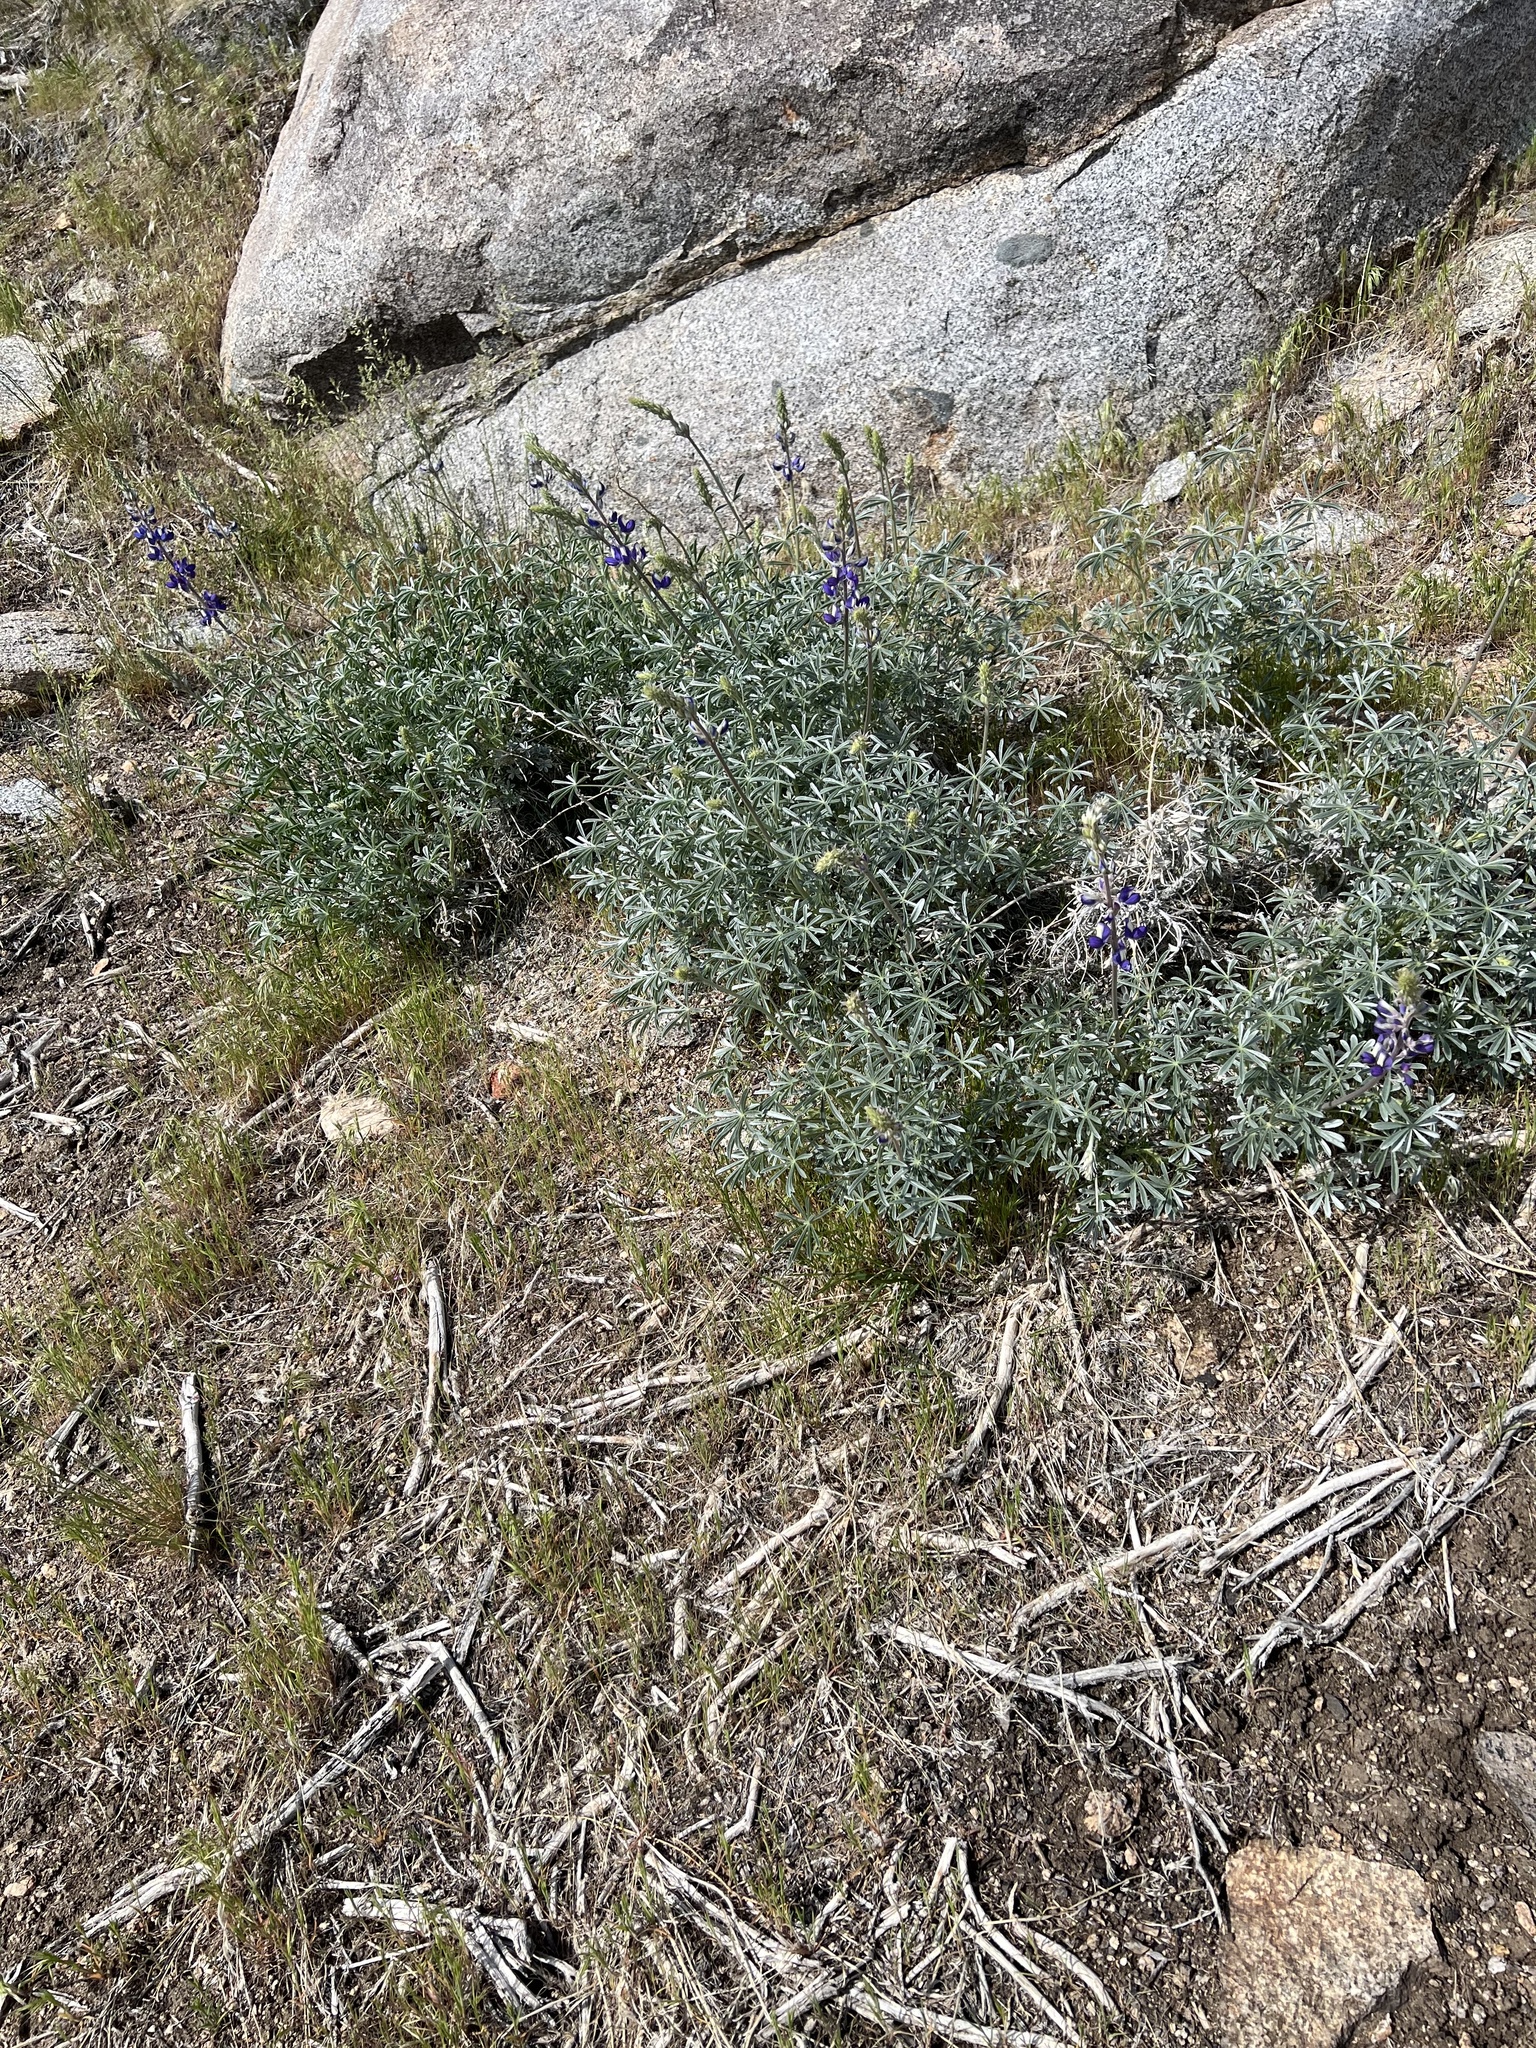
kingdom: Plantae
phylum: Tracheophyta
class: Magnoliopsida
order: Fabales
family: Fabaceae
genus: Lupinus
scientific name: Lupinus excubitus
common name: Grape soda lupine
